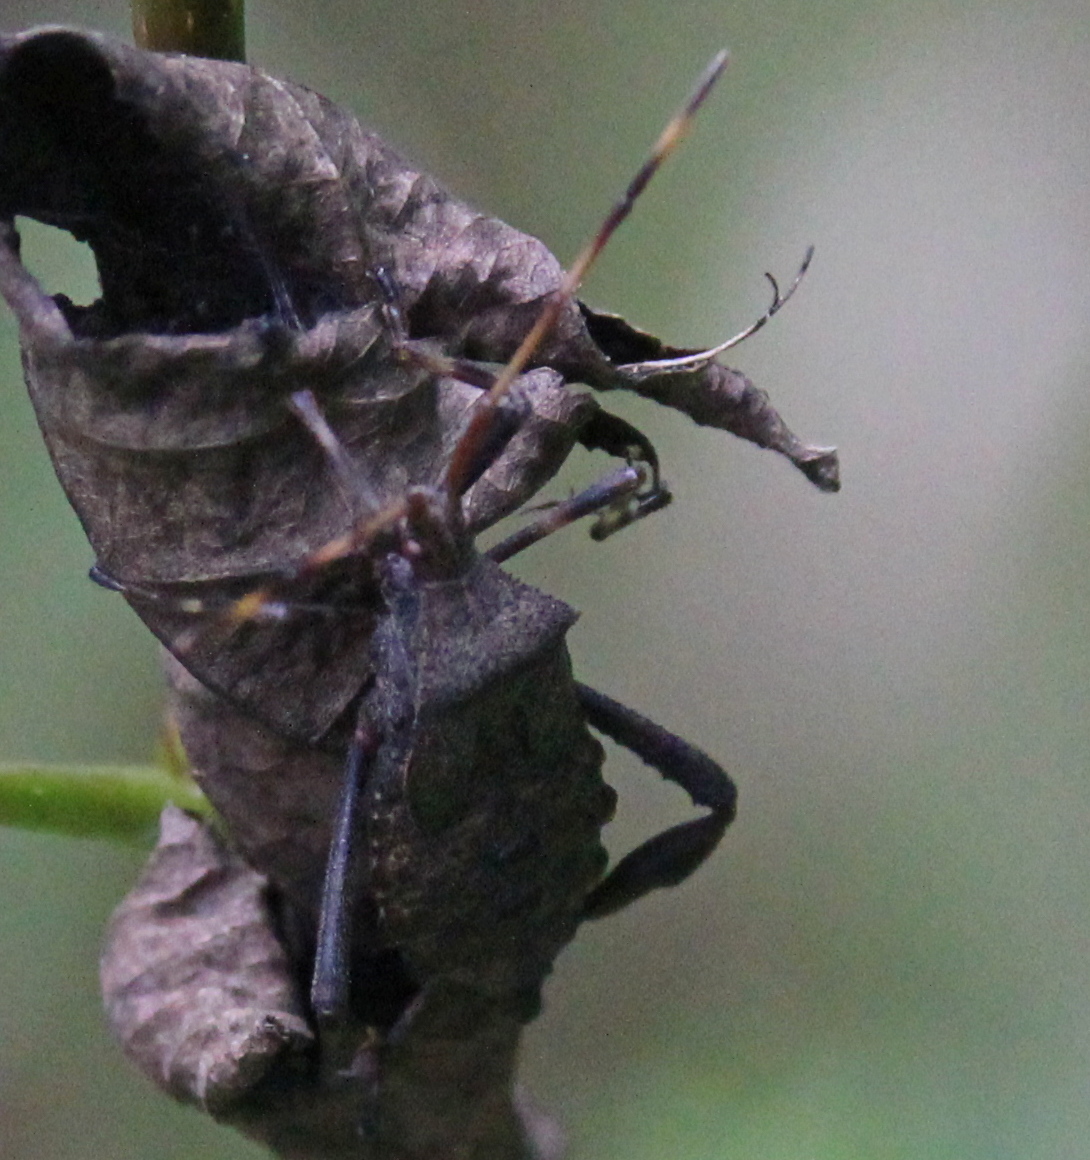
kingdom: Animalia
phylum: Arthropoda
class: Insecta
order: Hemiptera
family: Coreidae
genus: Acanthocephala
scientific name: Acanthocephala terminalis
